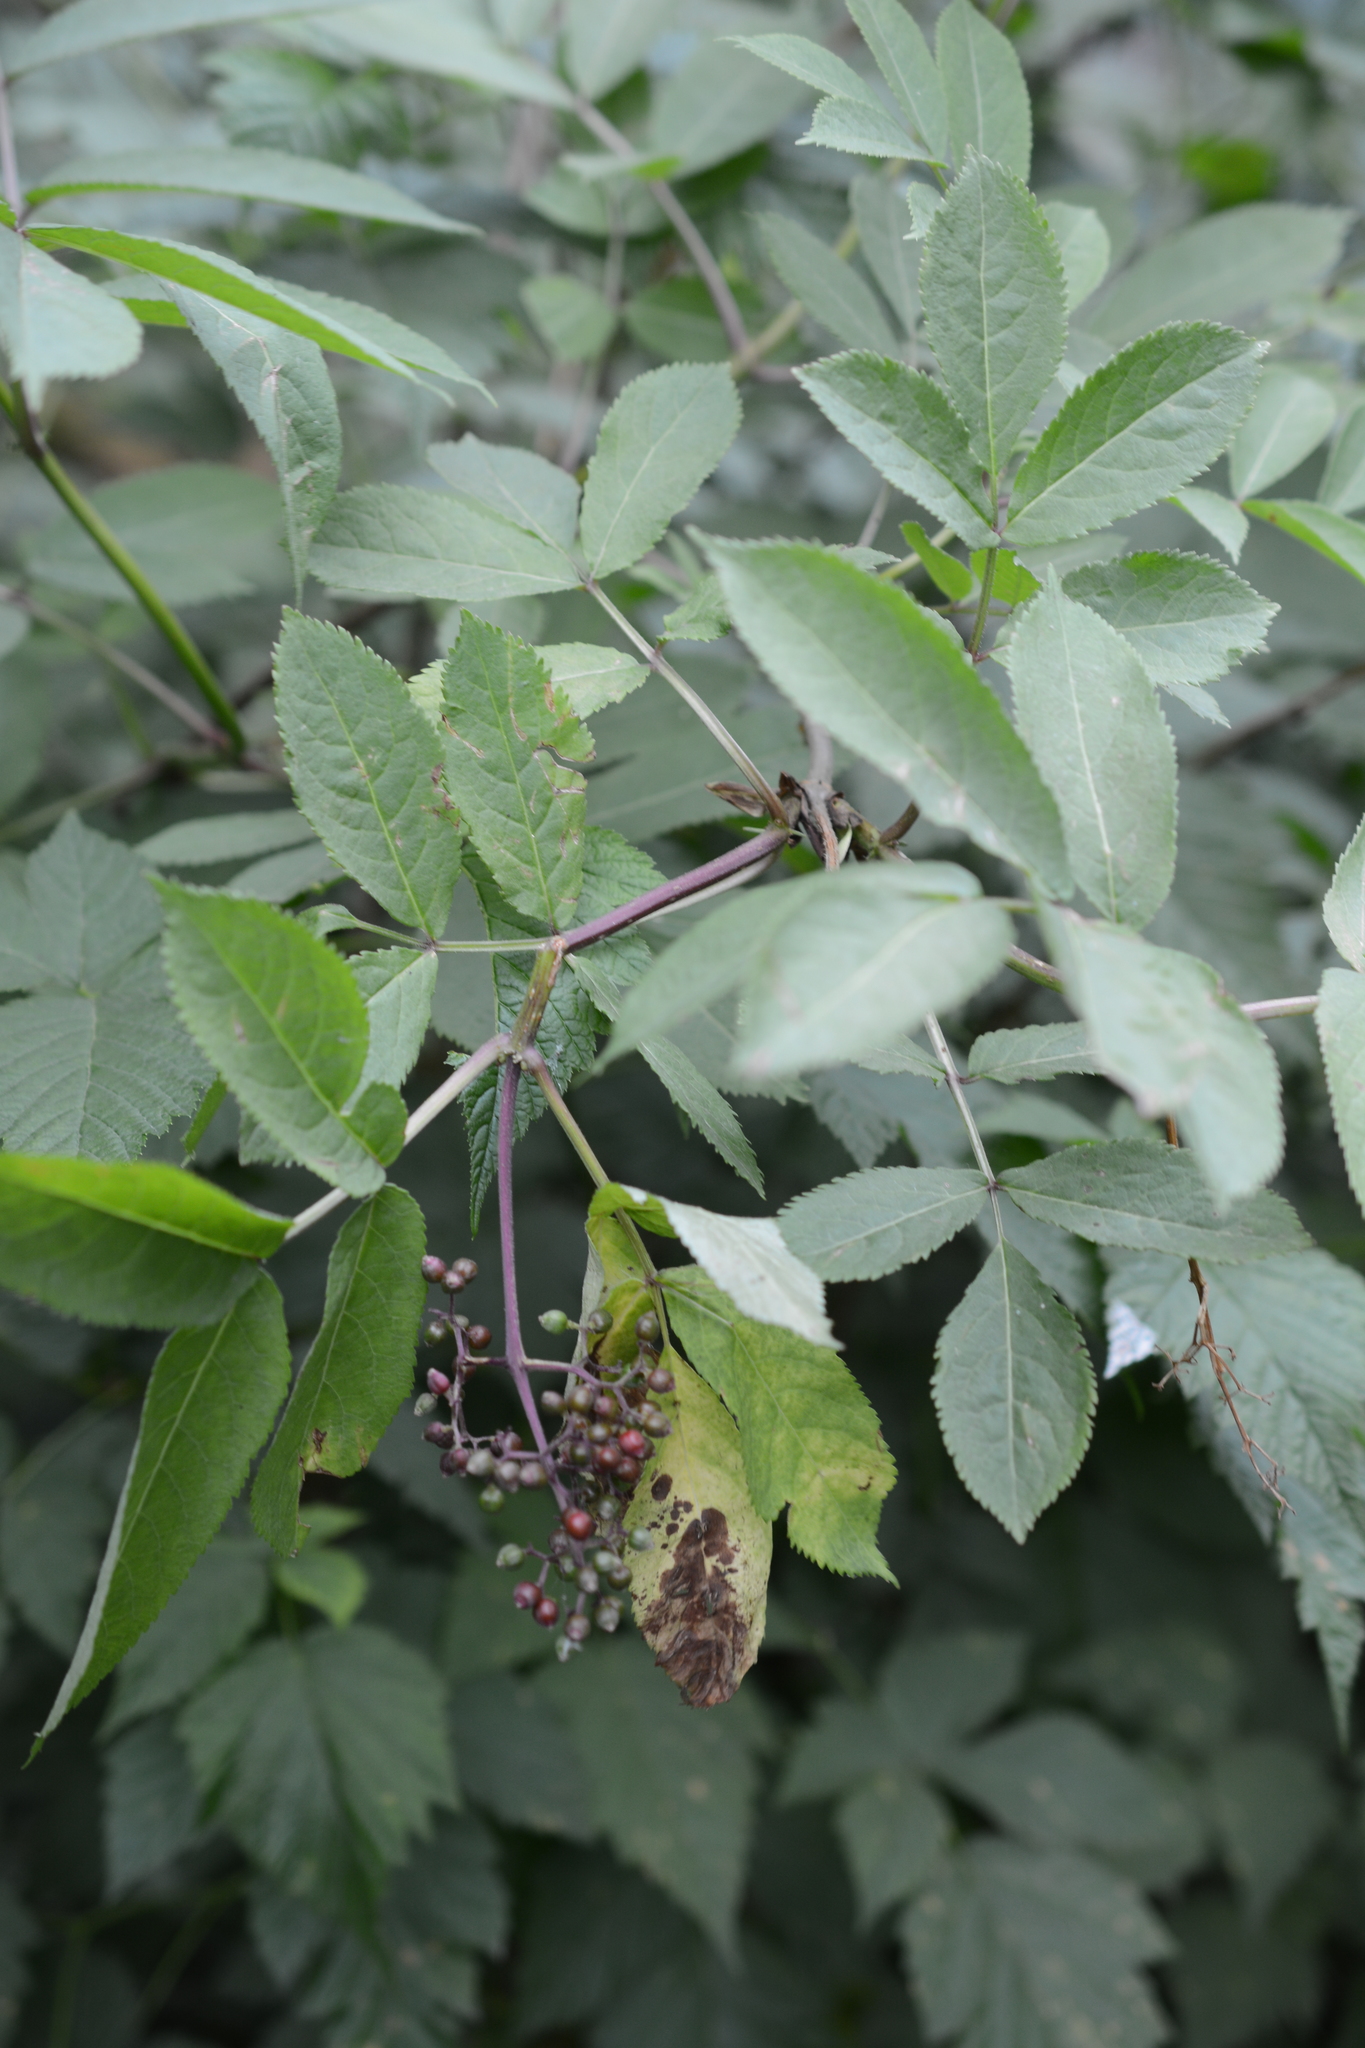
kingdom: Plantae
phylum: Tracheophyta
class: Magnoliopsida
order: Dipsacales
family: Viburnaceae
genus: Sambucus
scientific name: Sambucus racemosa
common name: Red-berried elder
